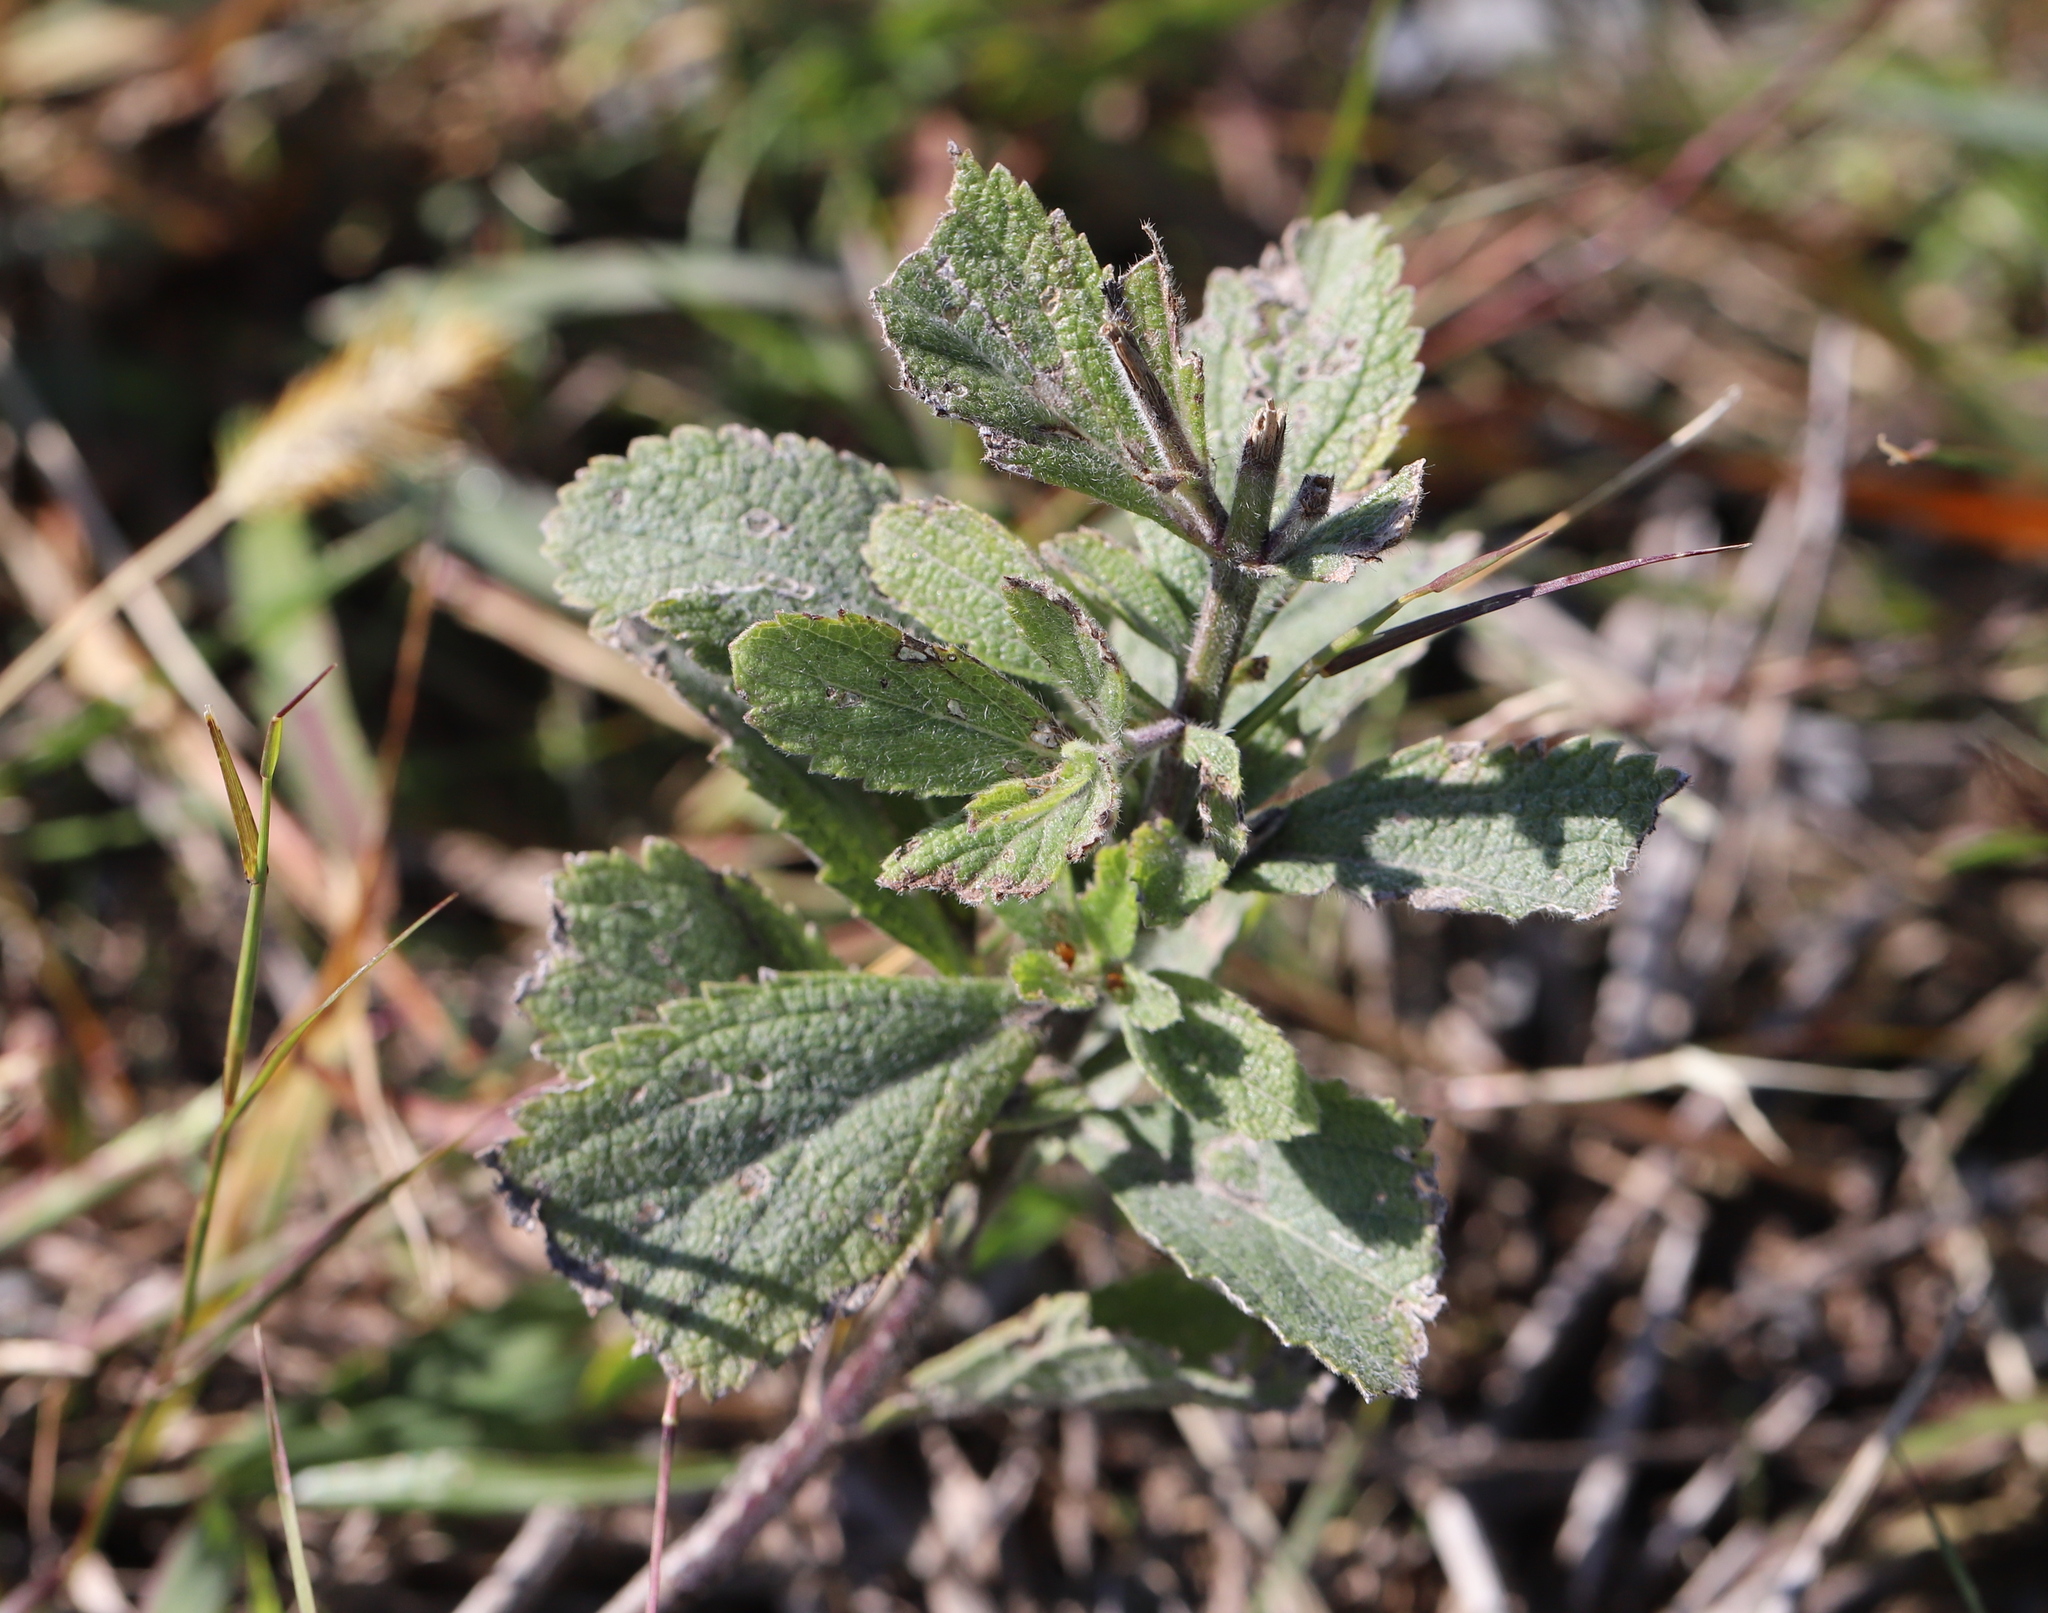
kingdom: Plantae
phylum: Tracheophyta
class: Magnoliopsida
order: Lamiales
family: Verbenaceae
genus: Verbena
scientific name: Verbena stricta
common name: Hoary vervain
